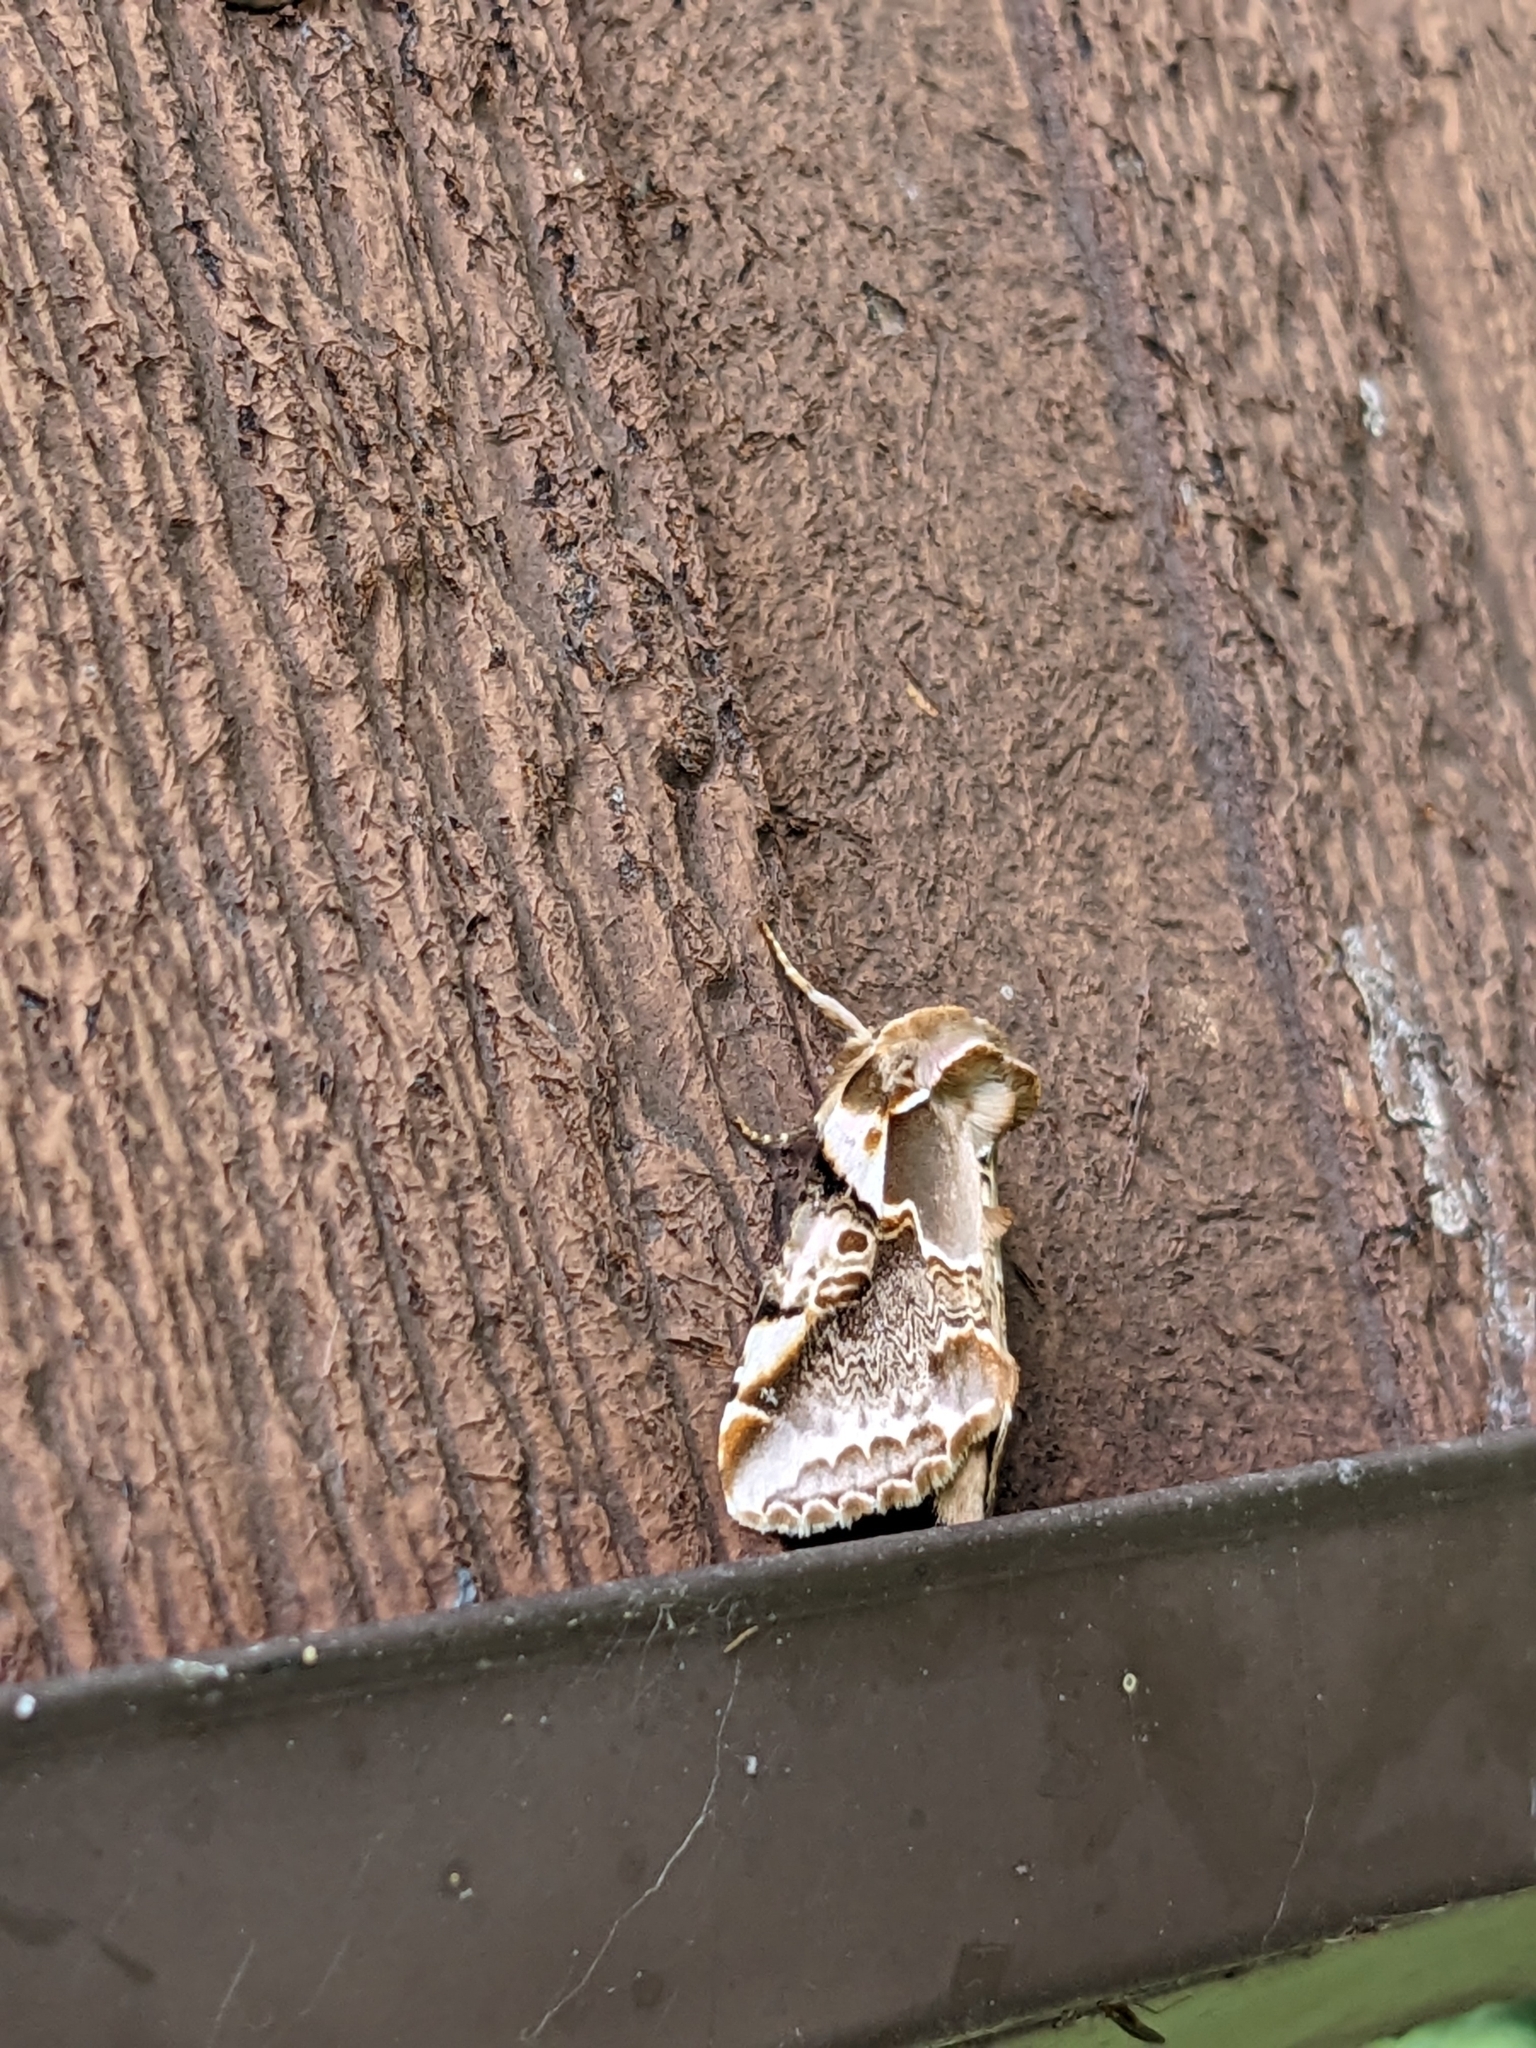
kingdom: Animalia
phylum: Arthropoda
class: Insecta
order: Lepidoptera
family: Drepanidae
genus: Habrosyne
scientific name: Habrosyne gloriosa
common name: Glorious habrosyne moth
